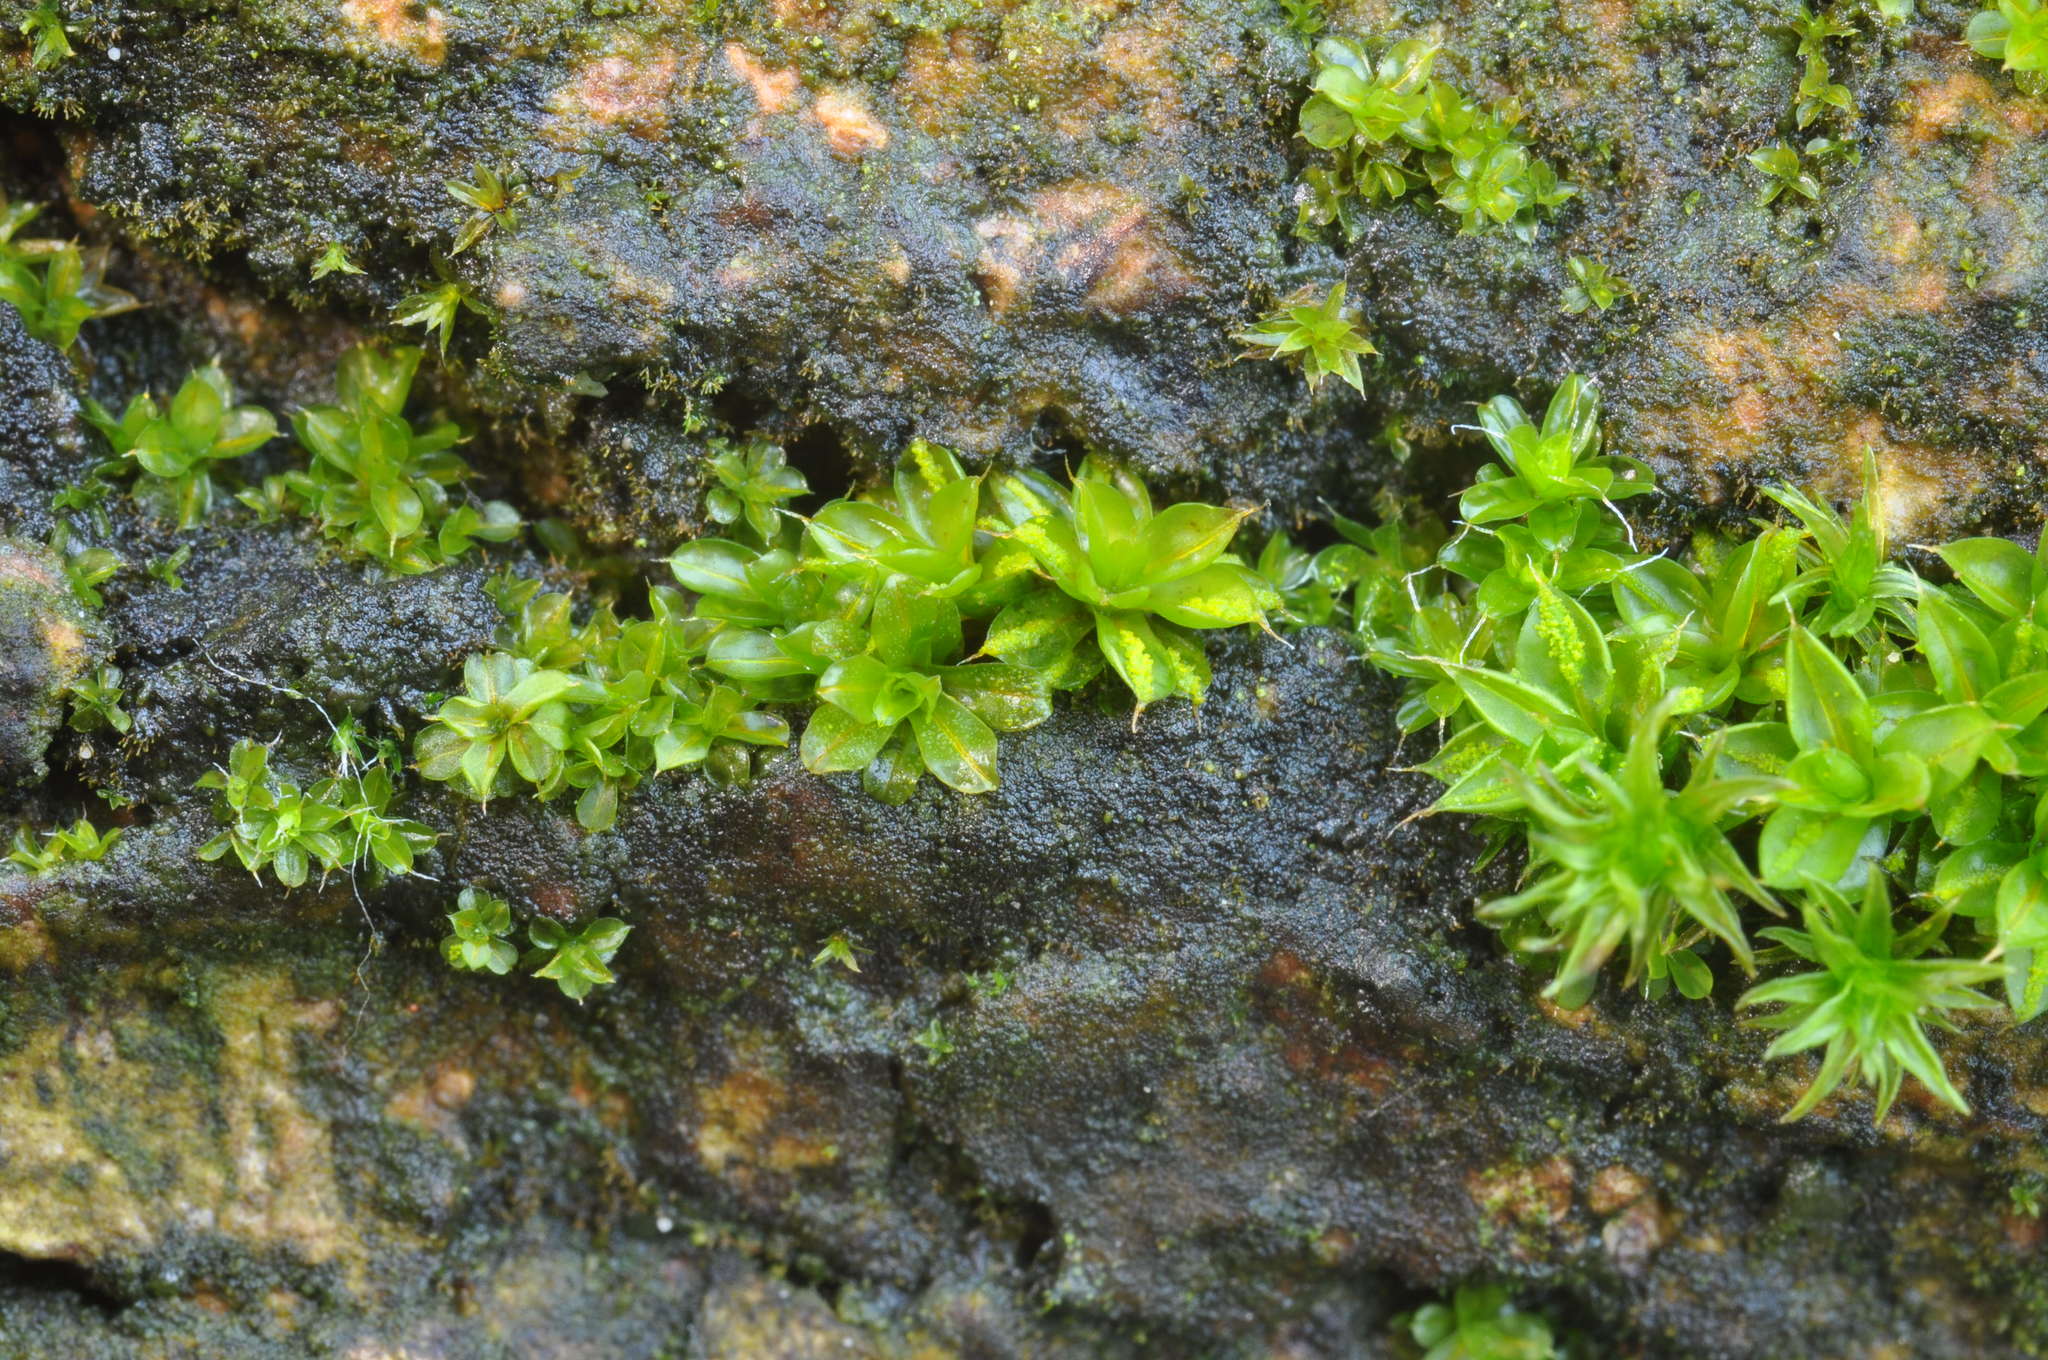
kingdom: Plantae
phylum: Bryophyta
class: Bryopsida
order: Pottiales
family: Pottiaceae
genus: Syntrichia
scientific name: Syntrichia latifolia
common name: Water screw-moss
